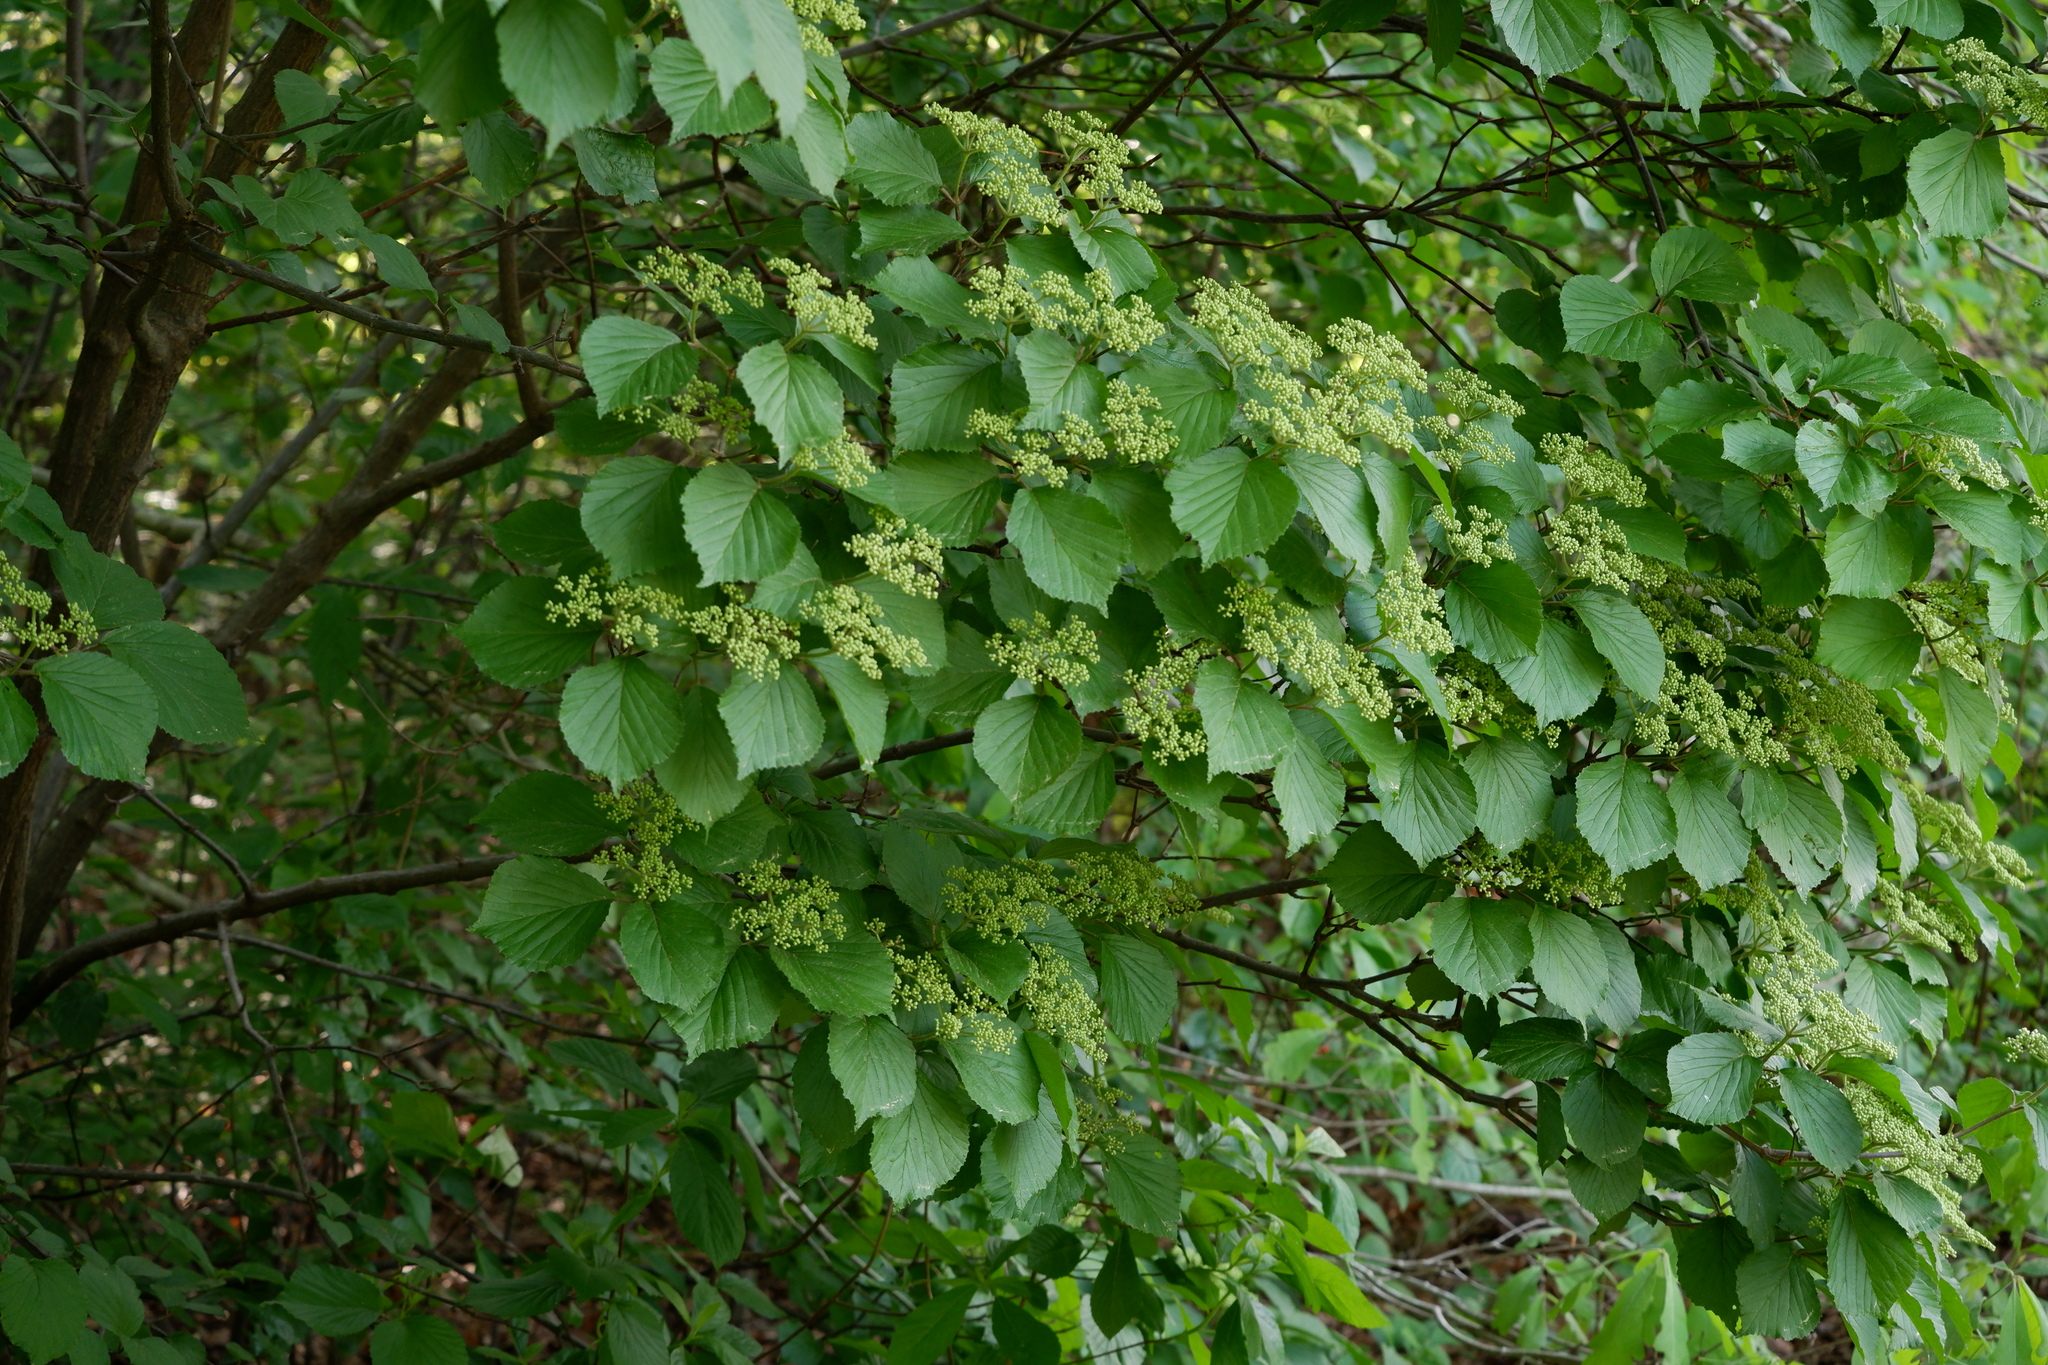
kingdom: Plantae
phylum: Tracheophyta
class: Magnoliopsida
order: Dipsacales
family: Viburnaceae
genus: Viburnum
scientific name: Viburnum dilatatum
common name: Linden arrowwood
